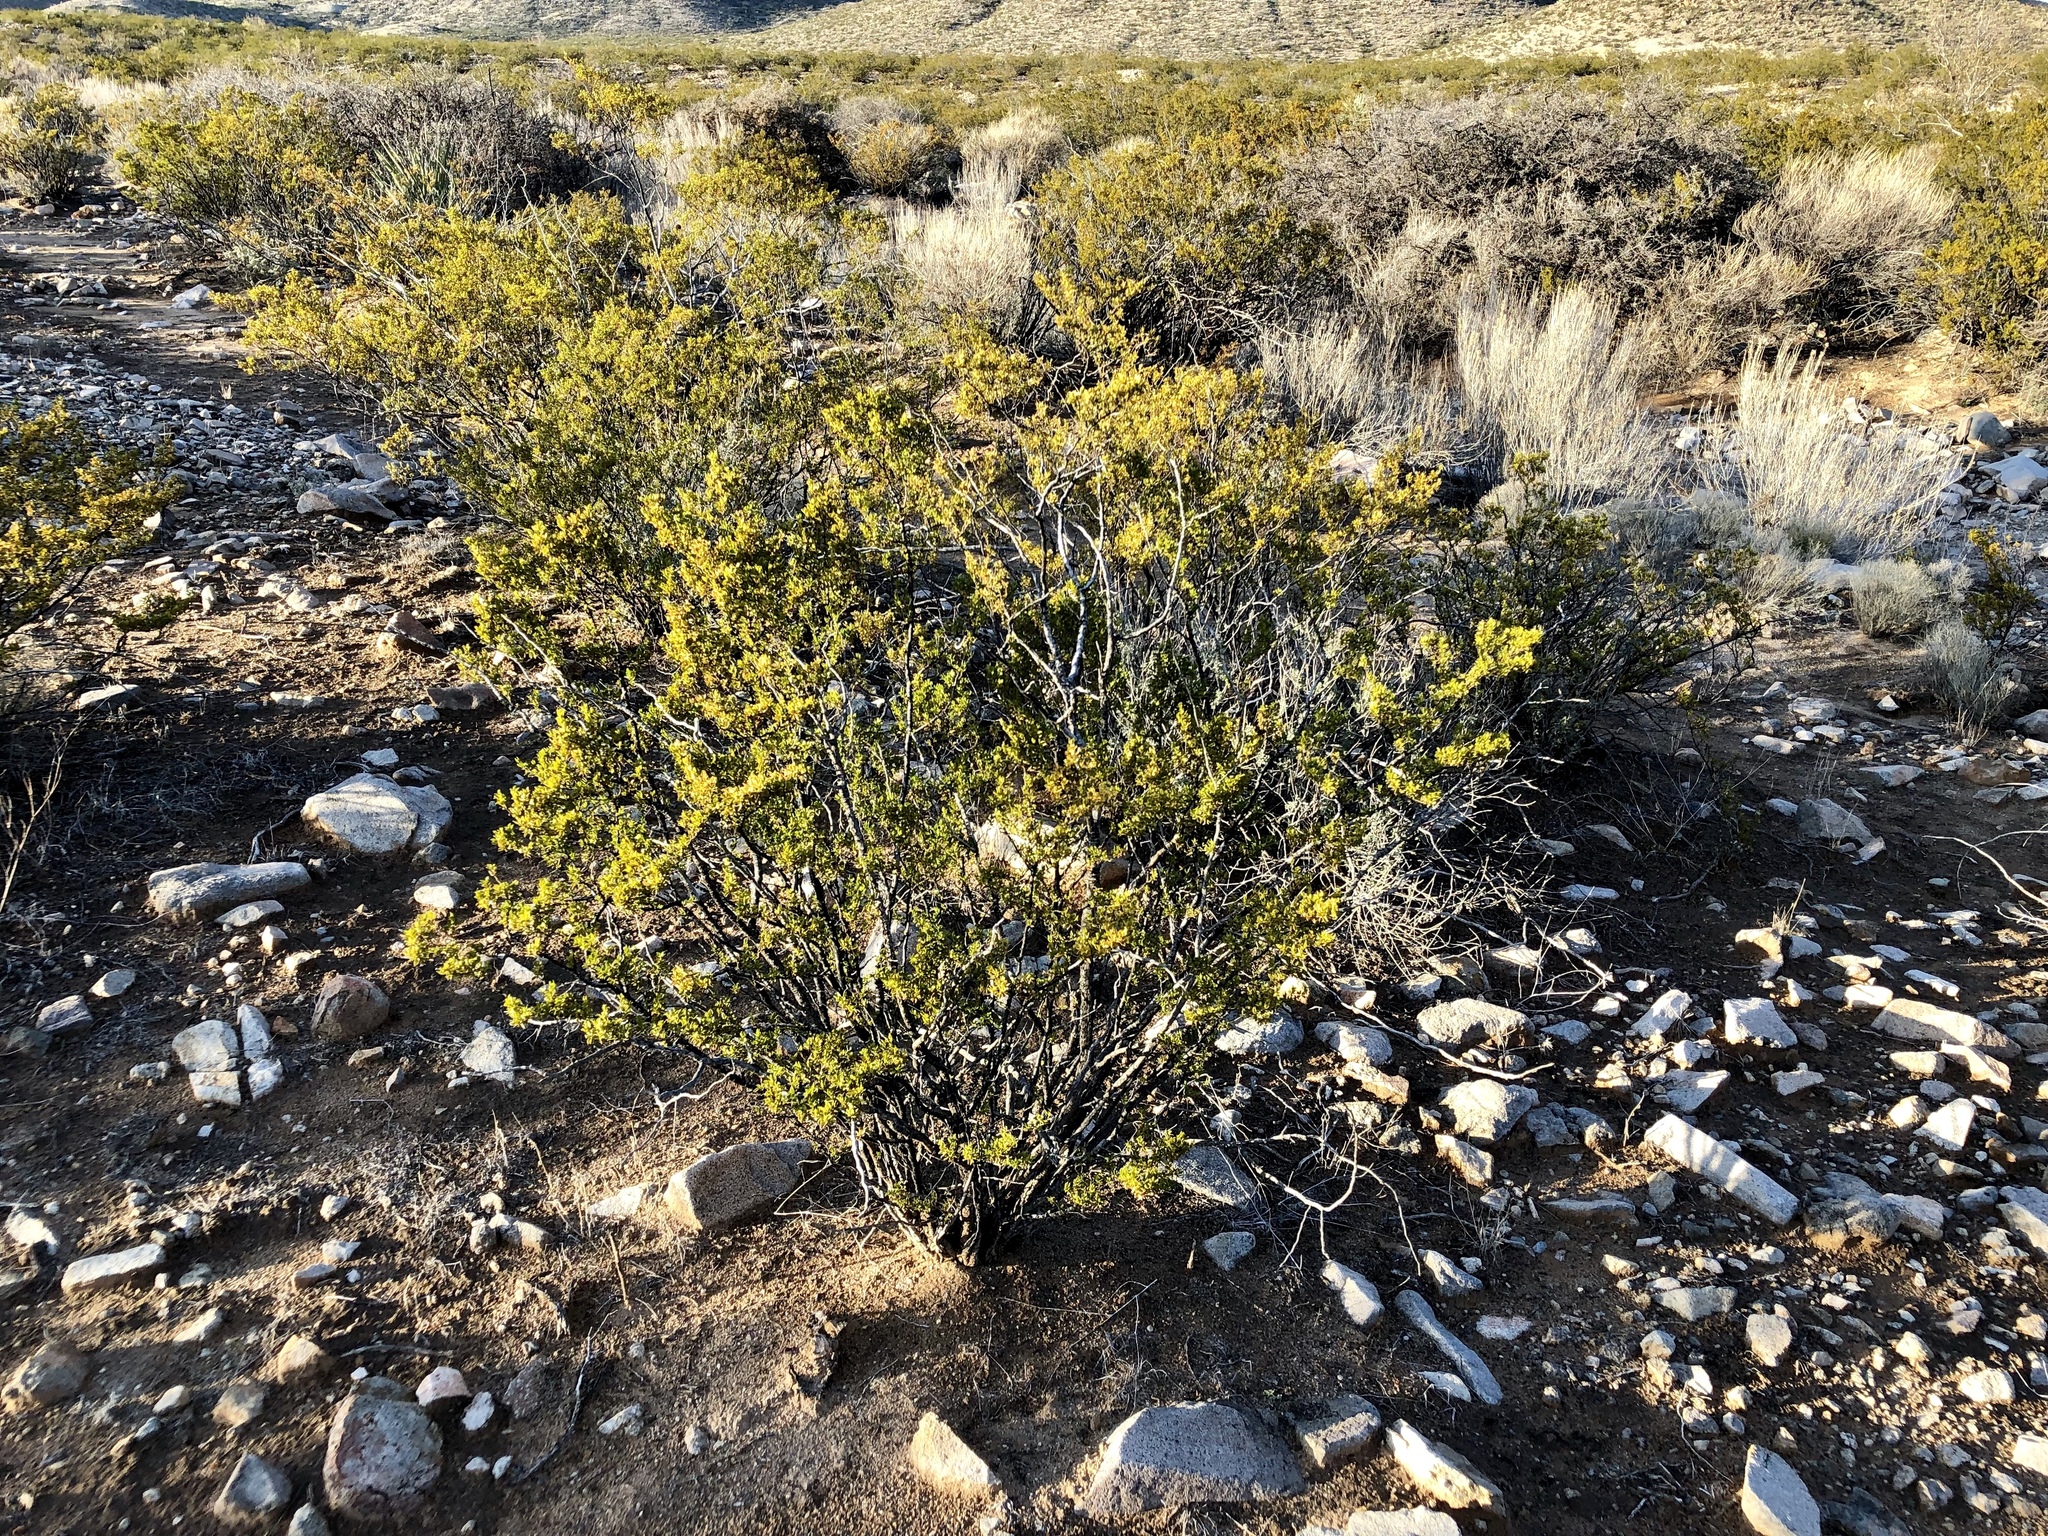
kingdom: Plantae
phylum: Tracheophyta
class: Magnoliopsida
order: Zygophyllales
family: Zygophyllaceae
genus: Larrea
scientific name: Larrea tridentata
